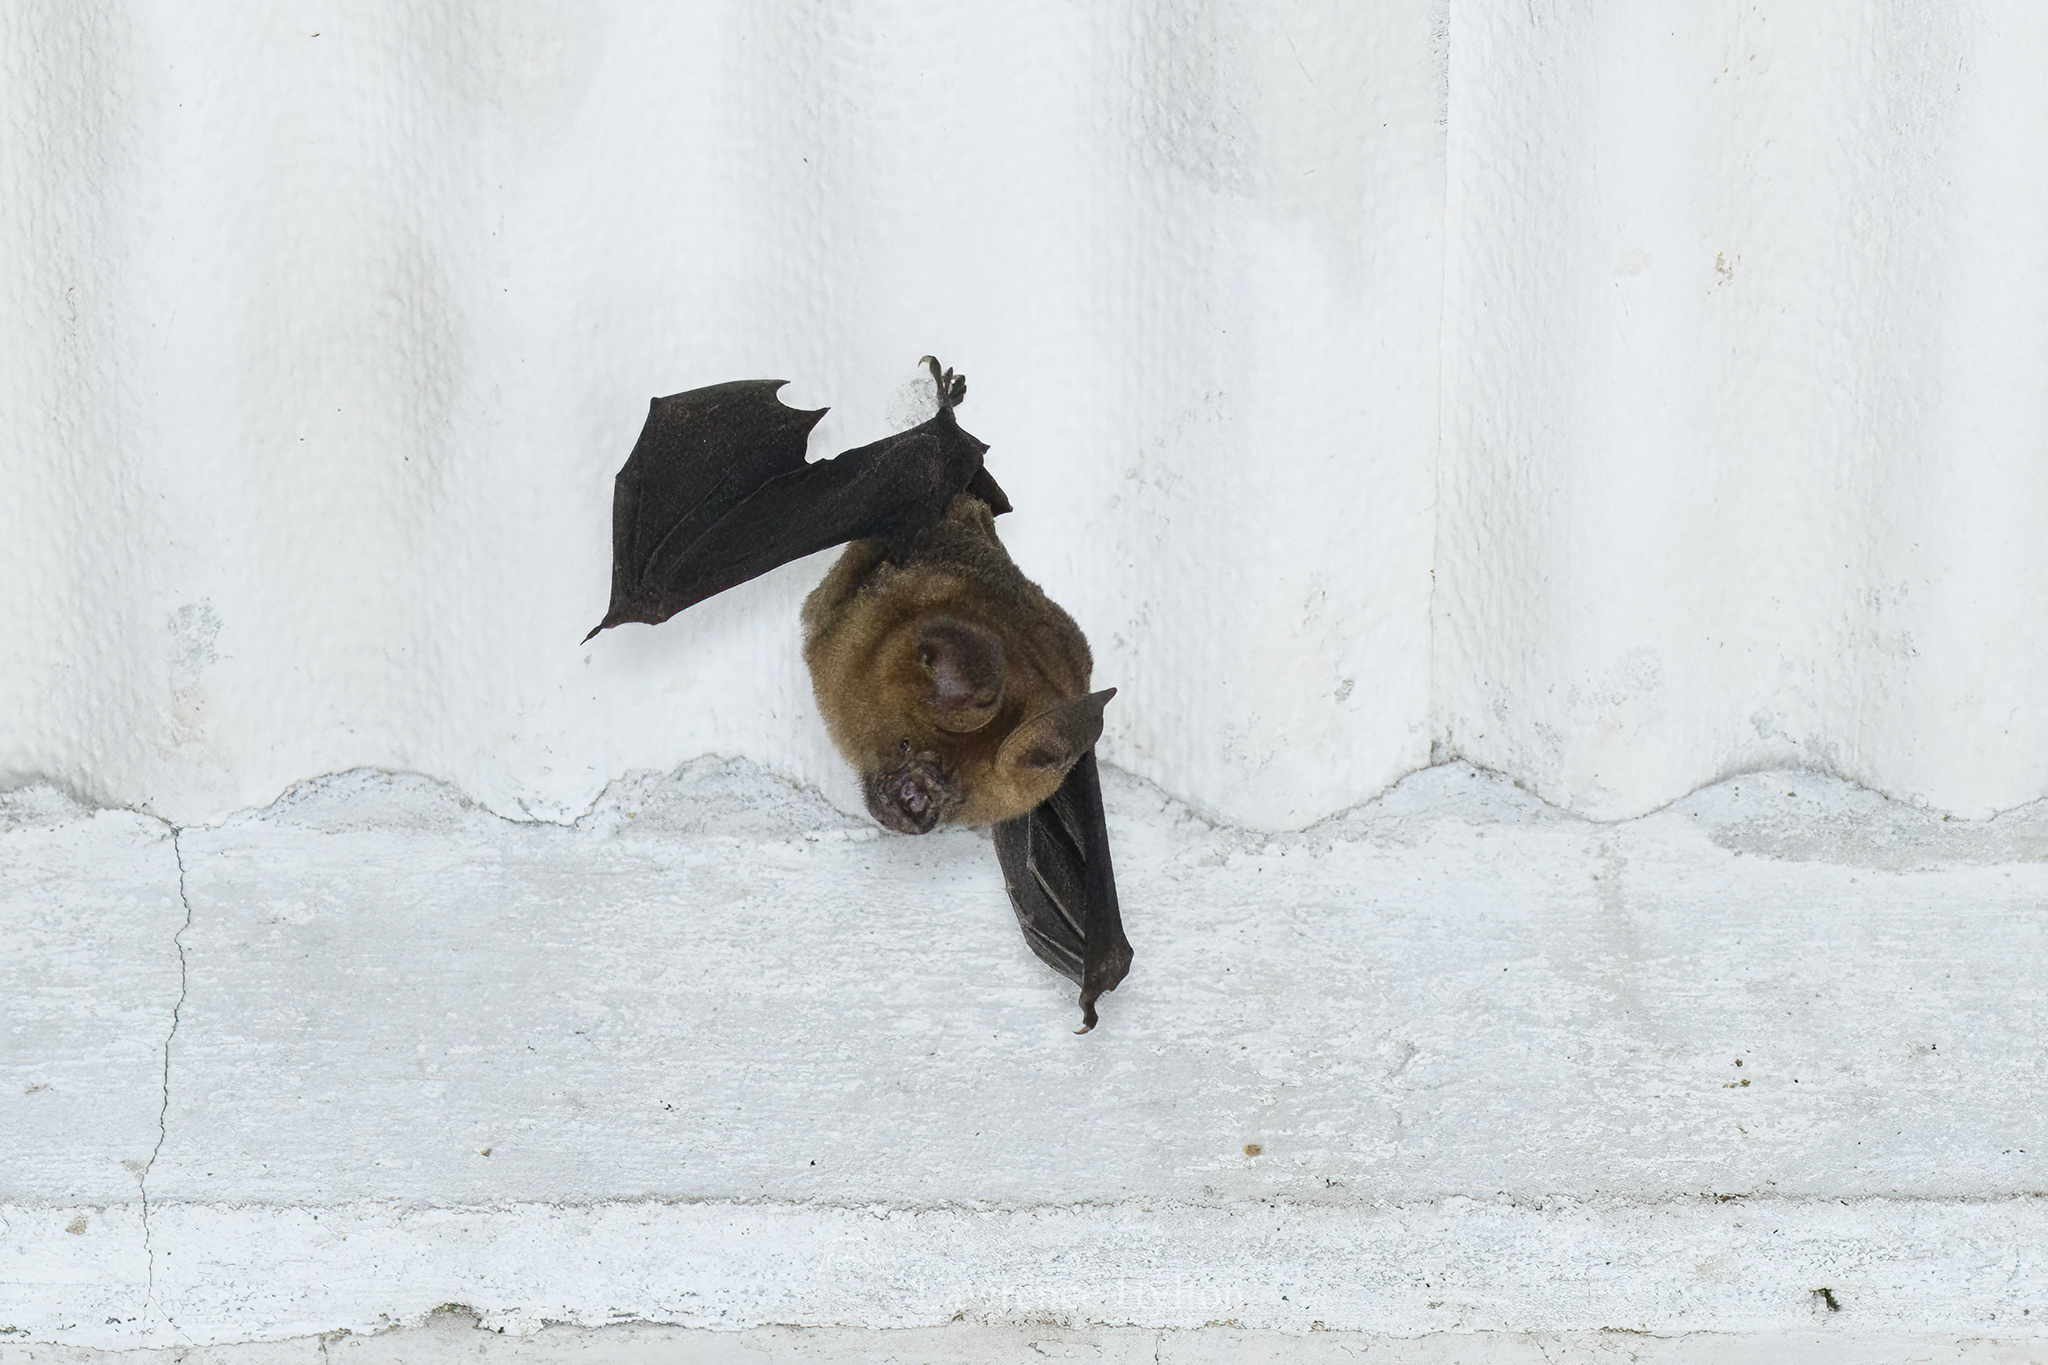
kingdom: Animalia
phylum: Chordata
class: Mammalia
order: Chiroptera
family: Hipposideridae
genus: Hipposideros
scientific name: Hipposideros armiger
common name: Great leaf-nosed bat
